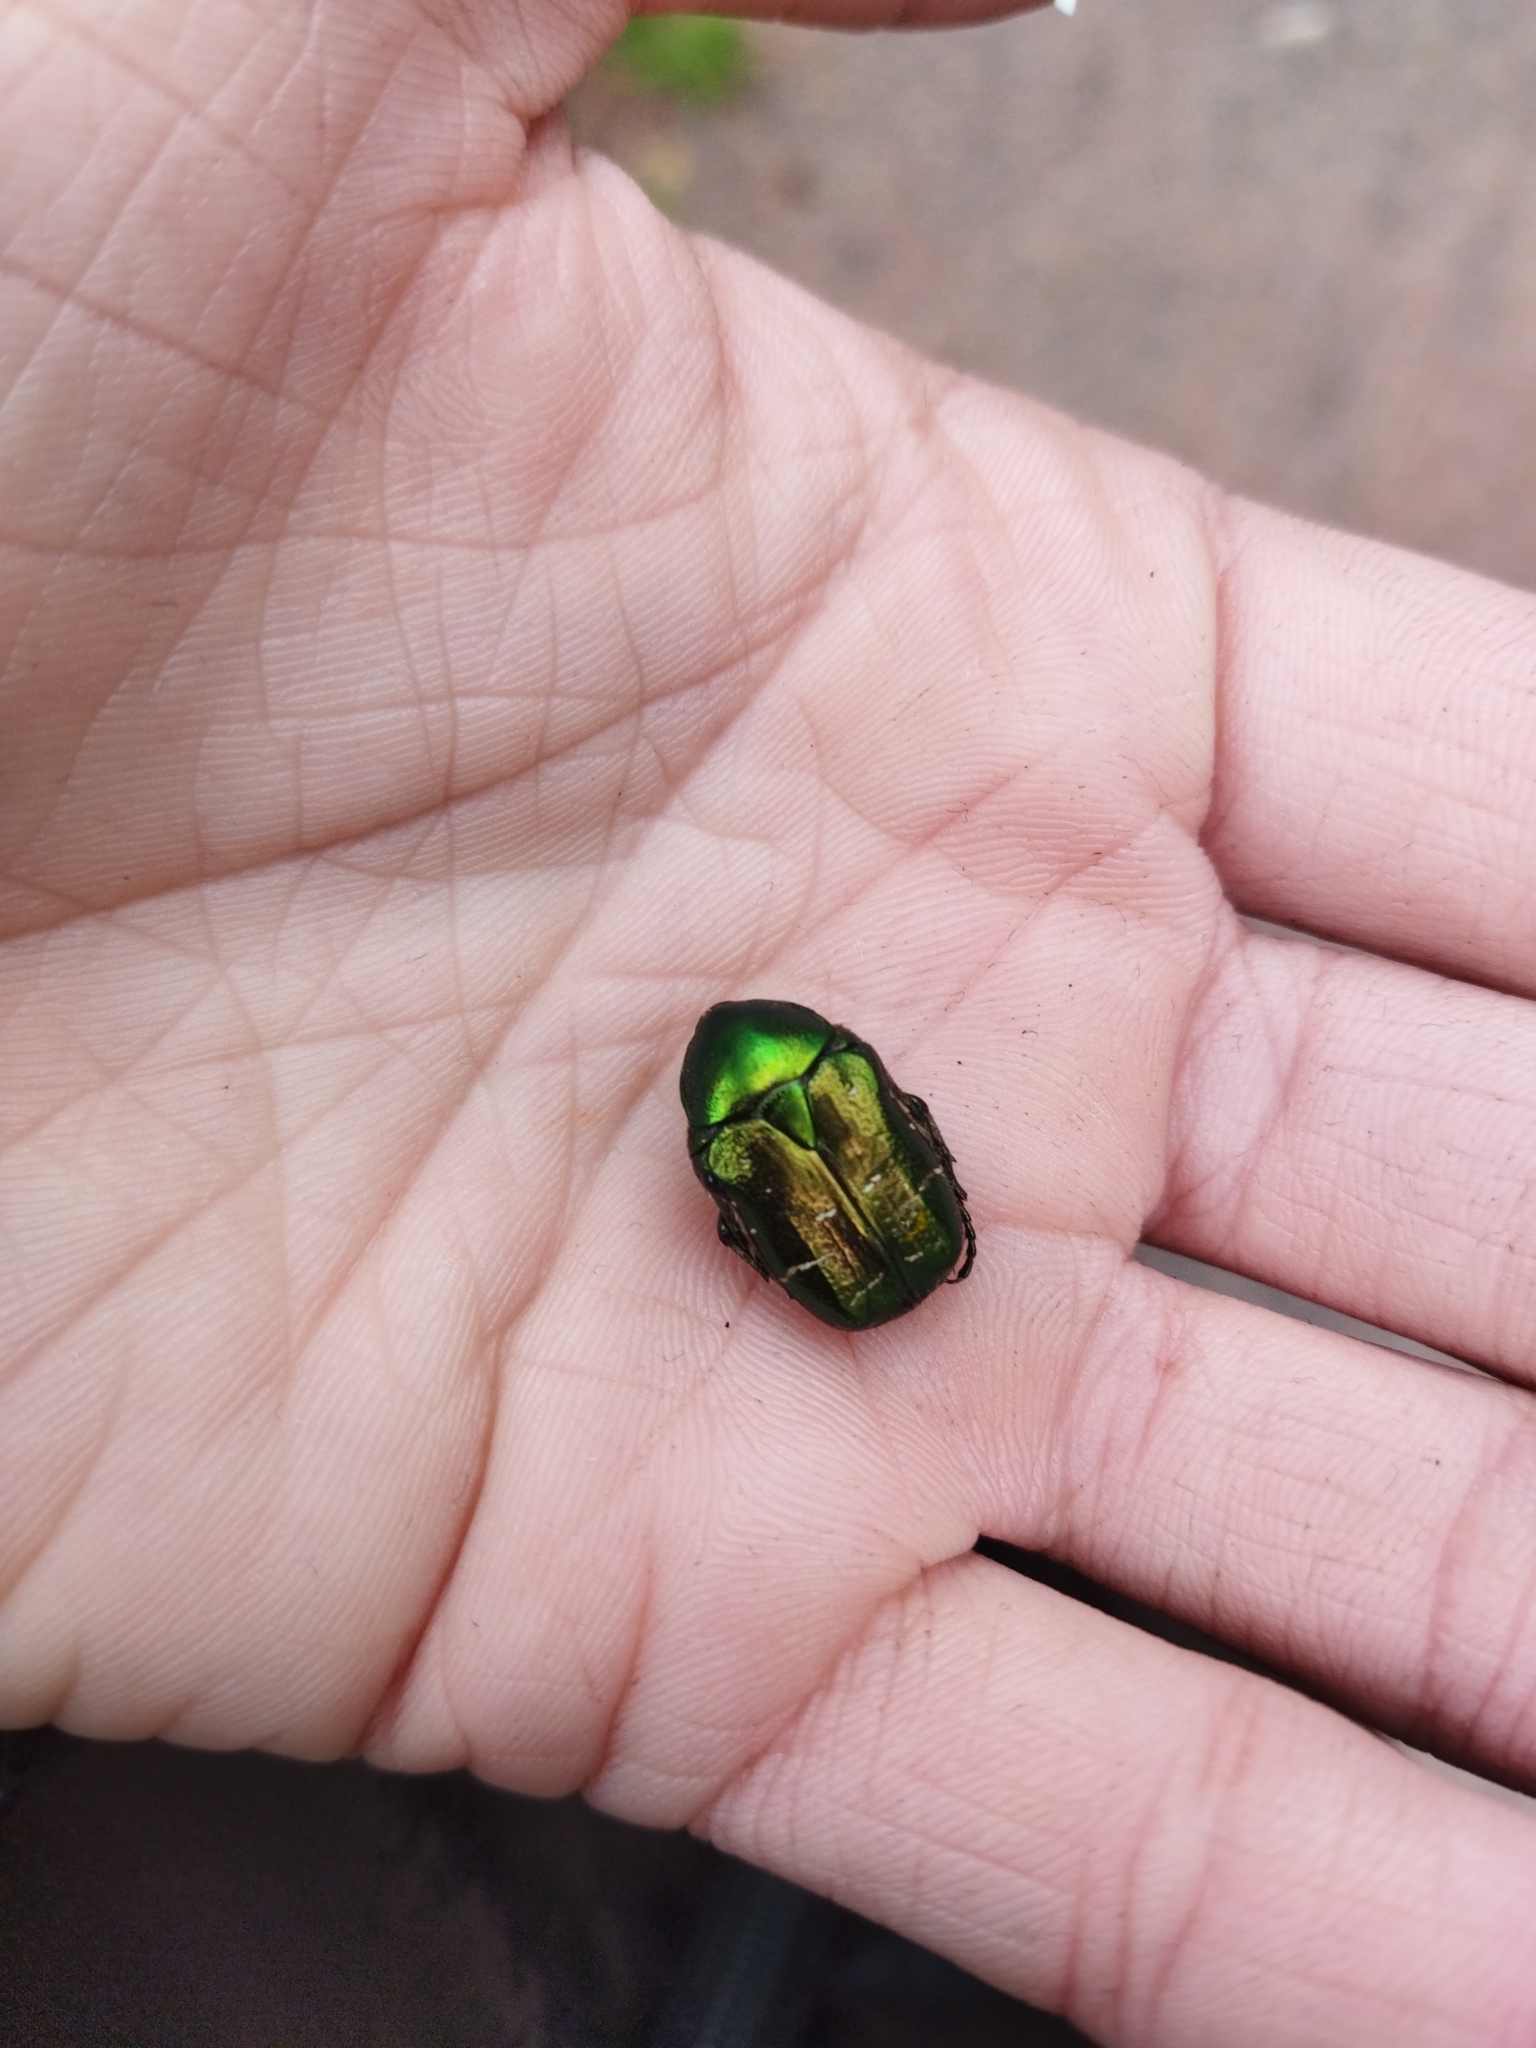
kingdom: Animalia
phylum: Arthropoda
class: Insecta
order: Coleoptera
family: Scarabaeidae
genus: Cetonia
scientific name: Cetonia aurata
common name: Rose chafer
